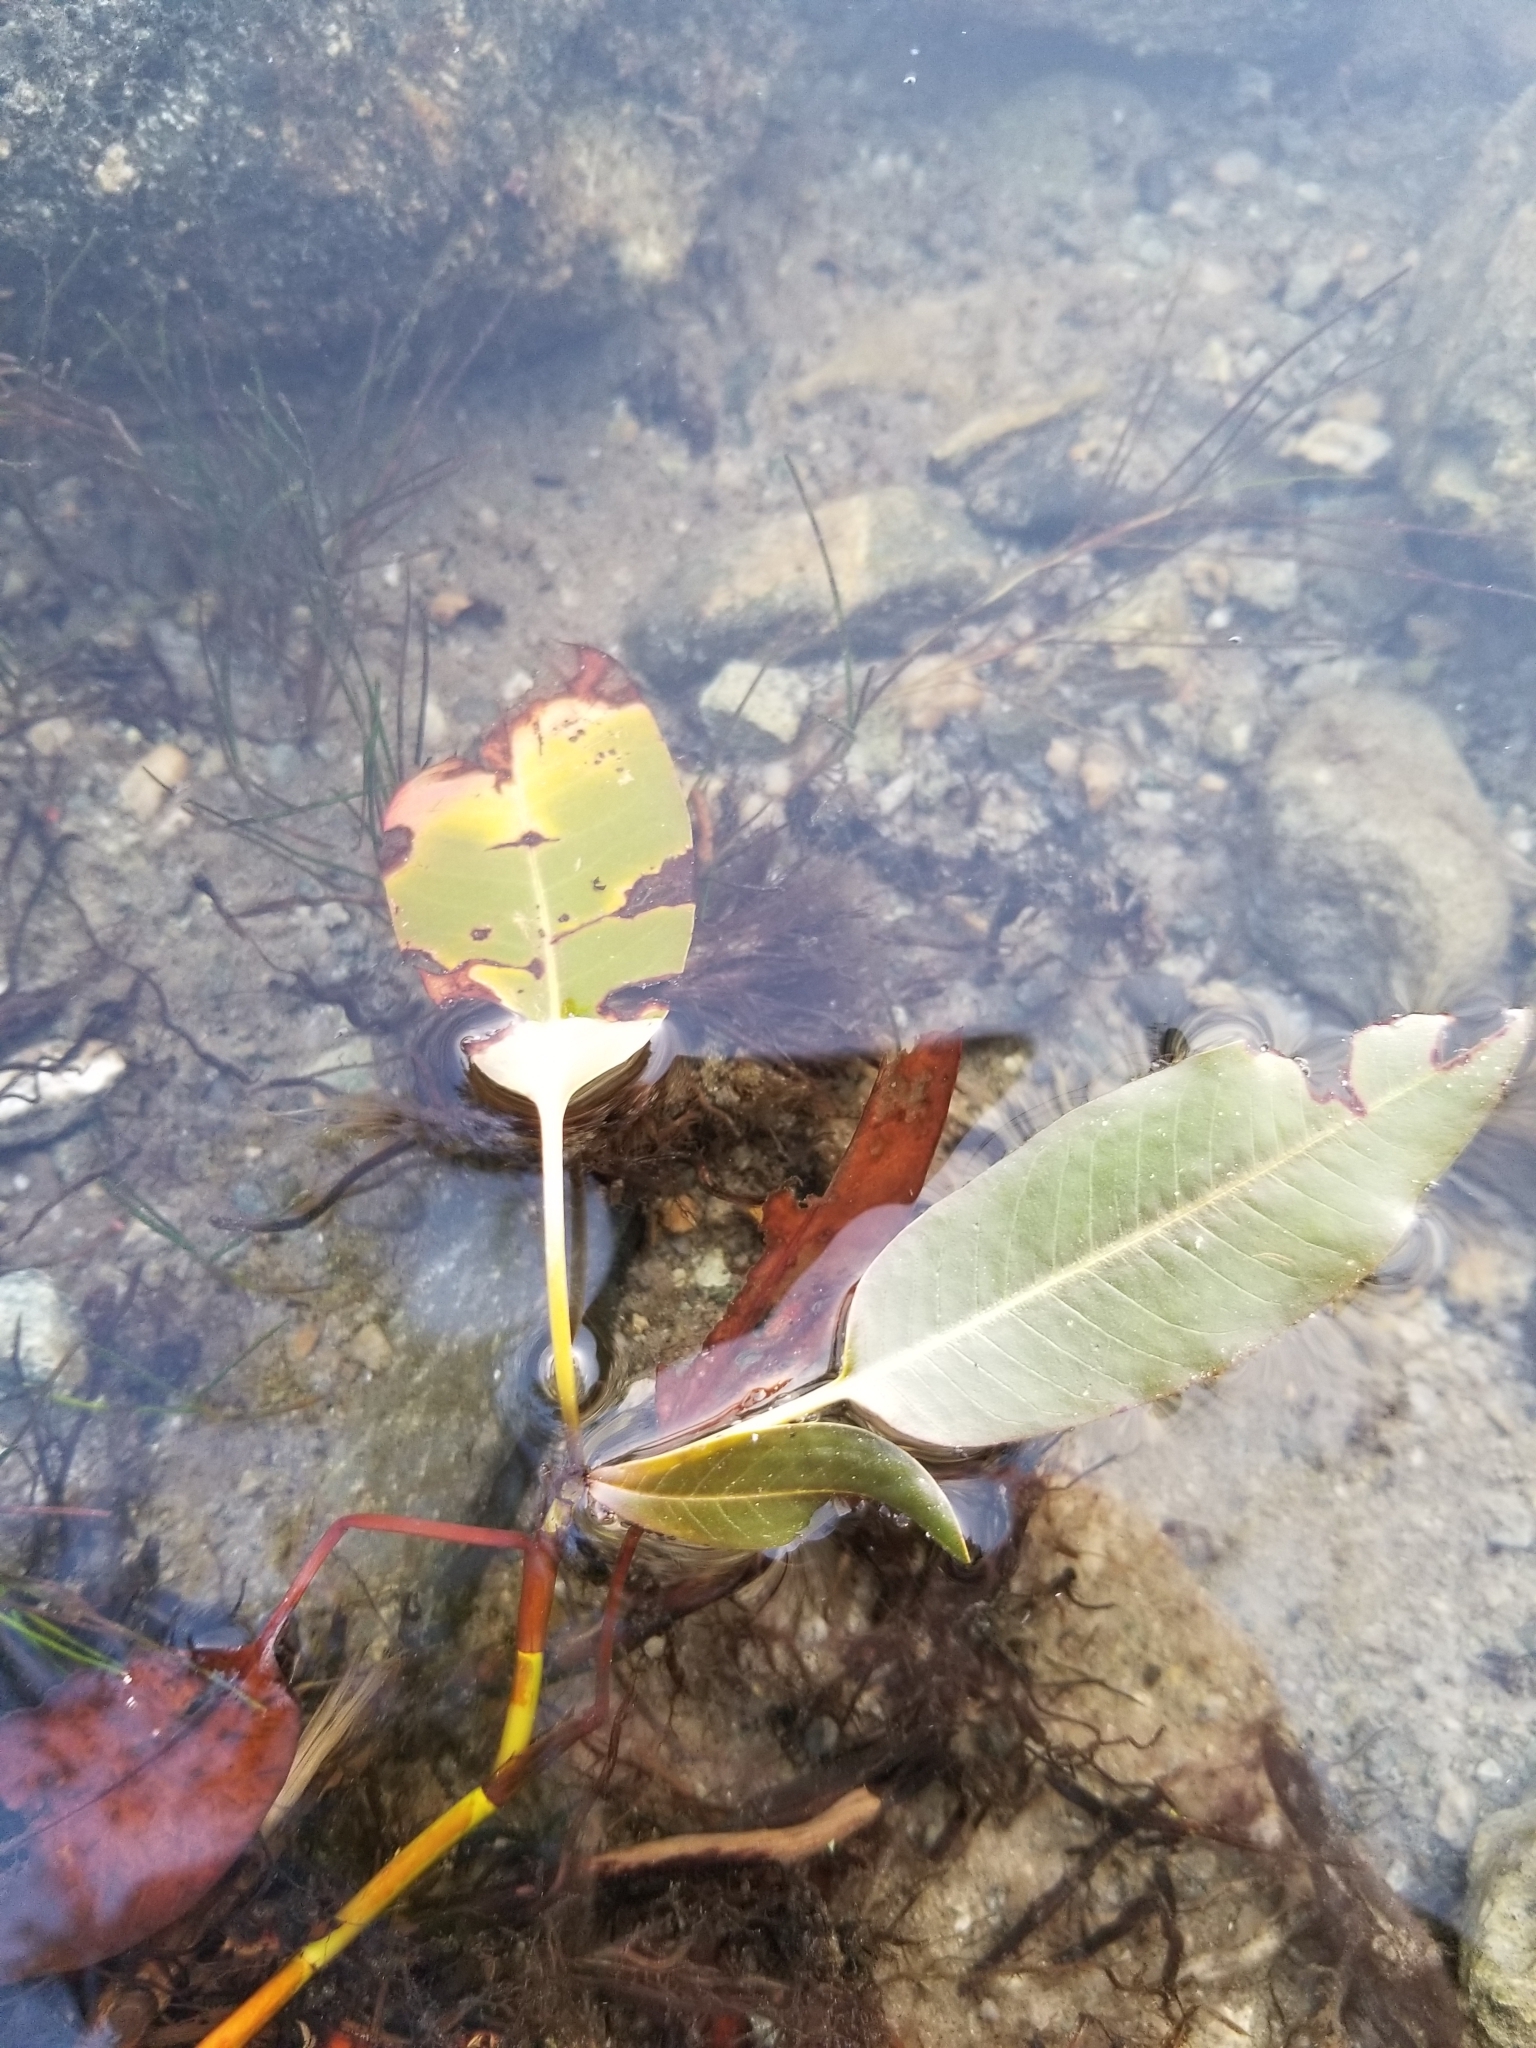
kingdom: Plantae
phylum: Tracheophyta
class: Magnoliopsida
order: Caryophyllales
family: Polygonaceae
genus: Persicaria
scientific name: Persicaria amphibia
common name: Amphibious bistort
